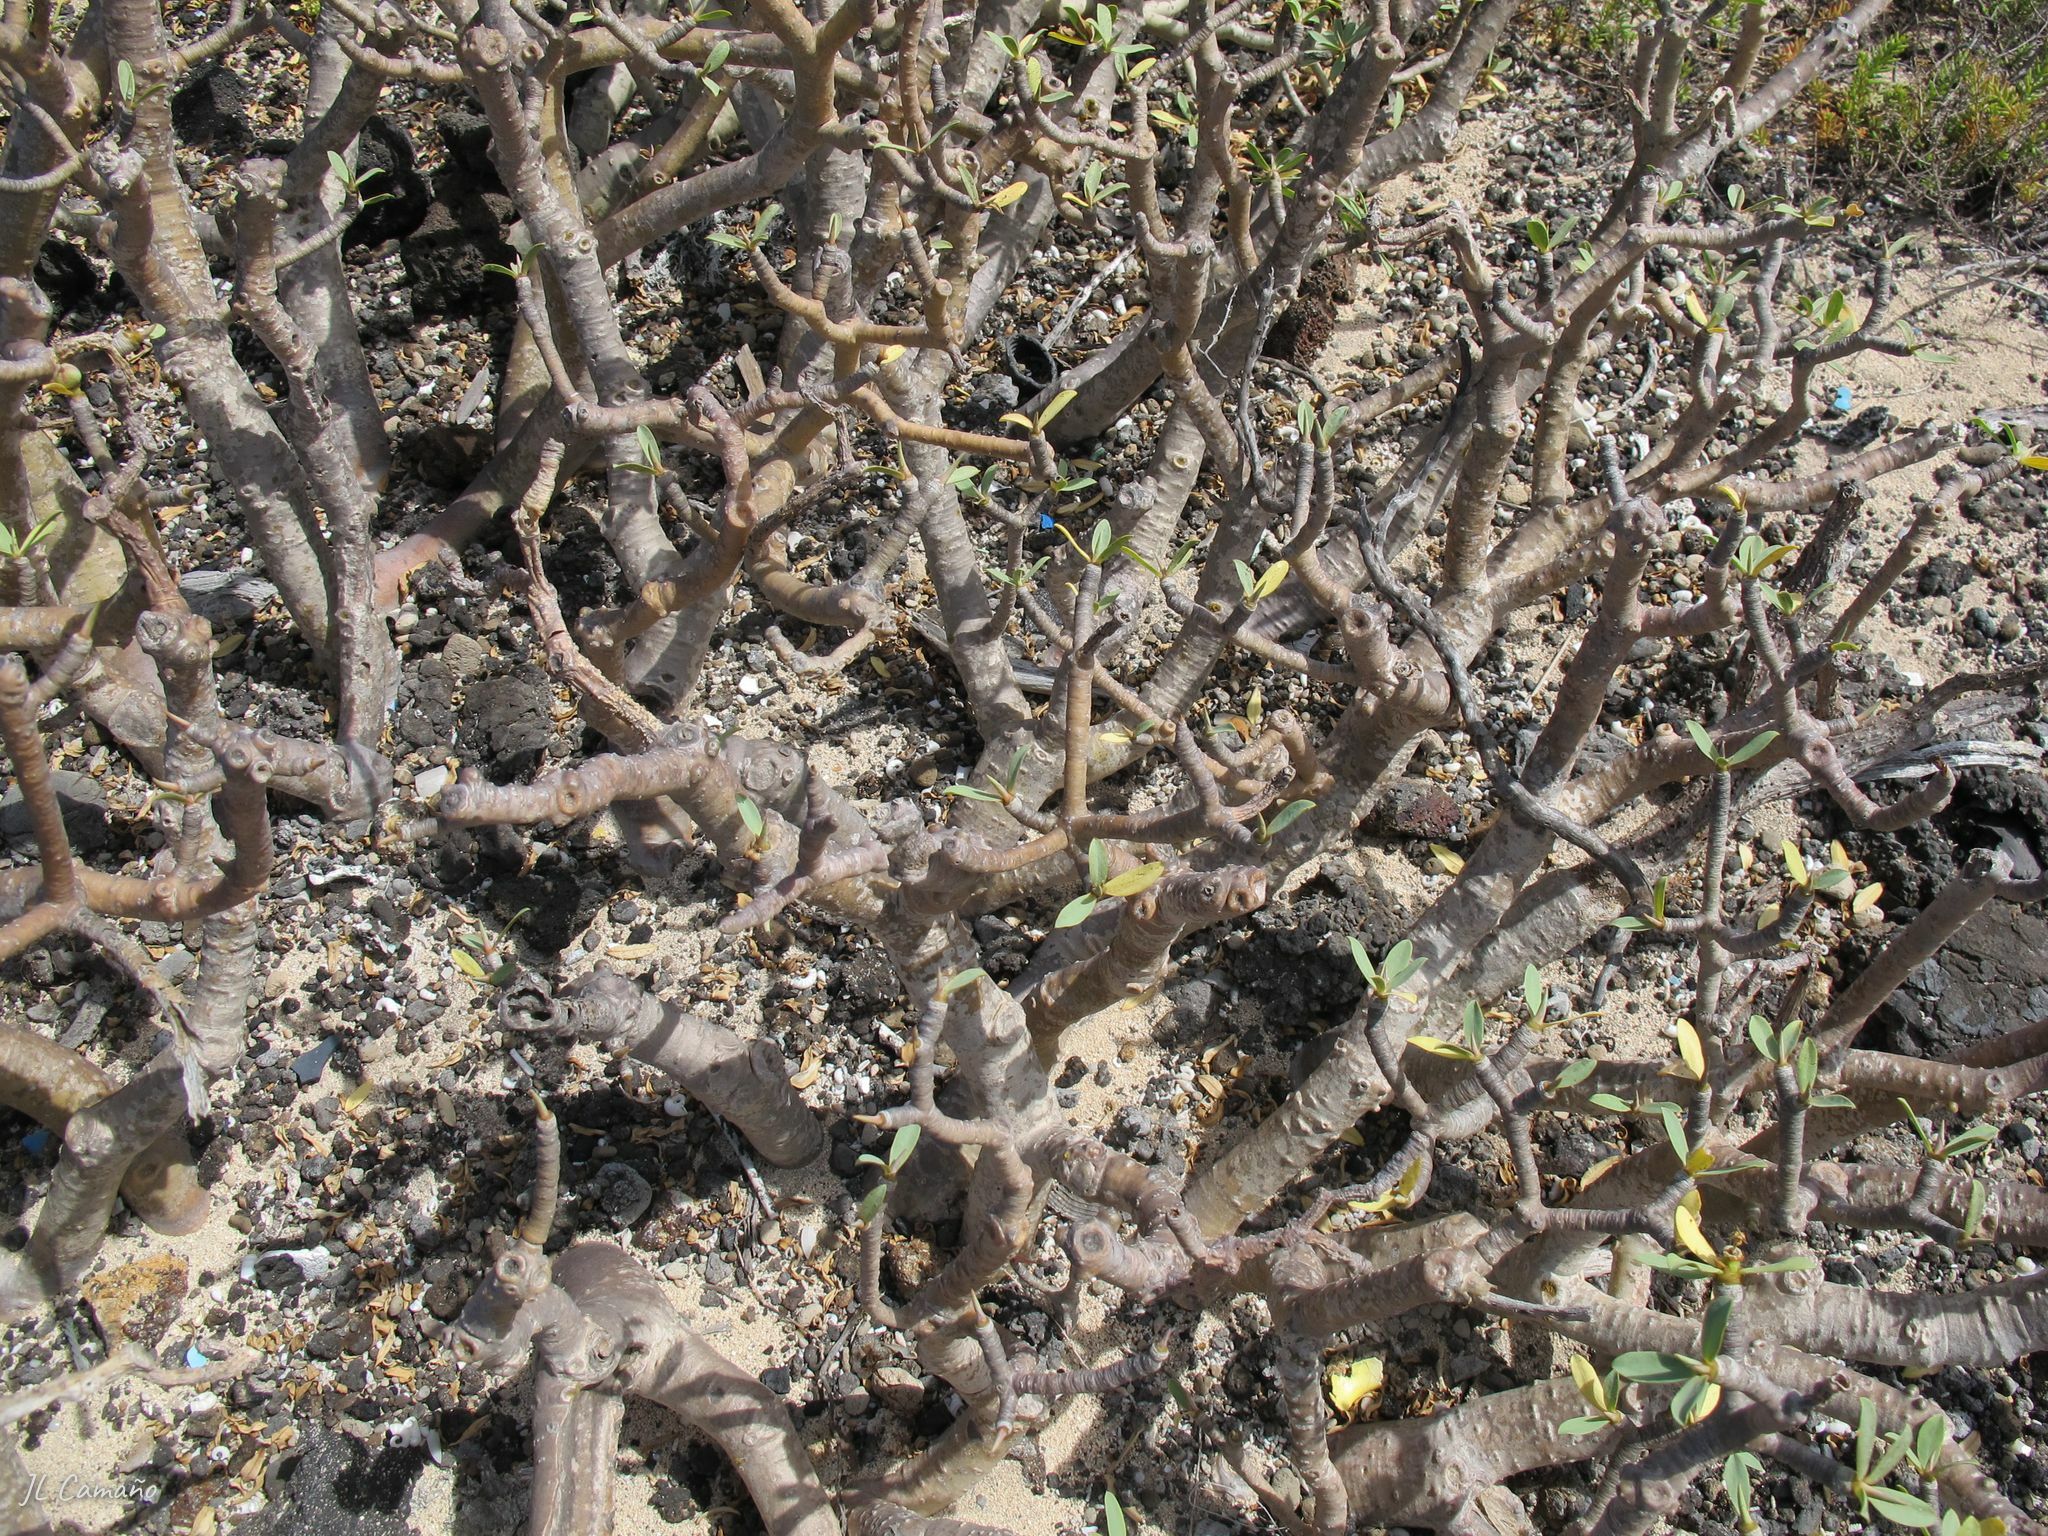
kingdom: Plantae
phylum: Tracheophyta
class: Magnoliopsida
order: Malpighiales
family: Euphorbiaceae
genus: Euphorbia
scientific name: Euphorbia balsamifera
